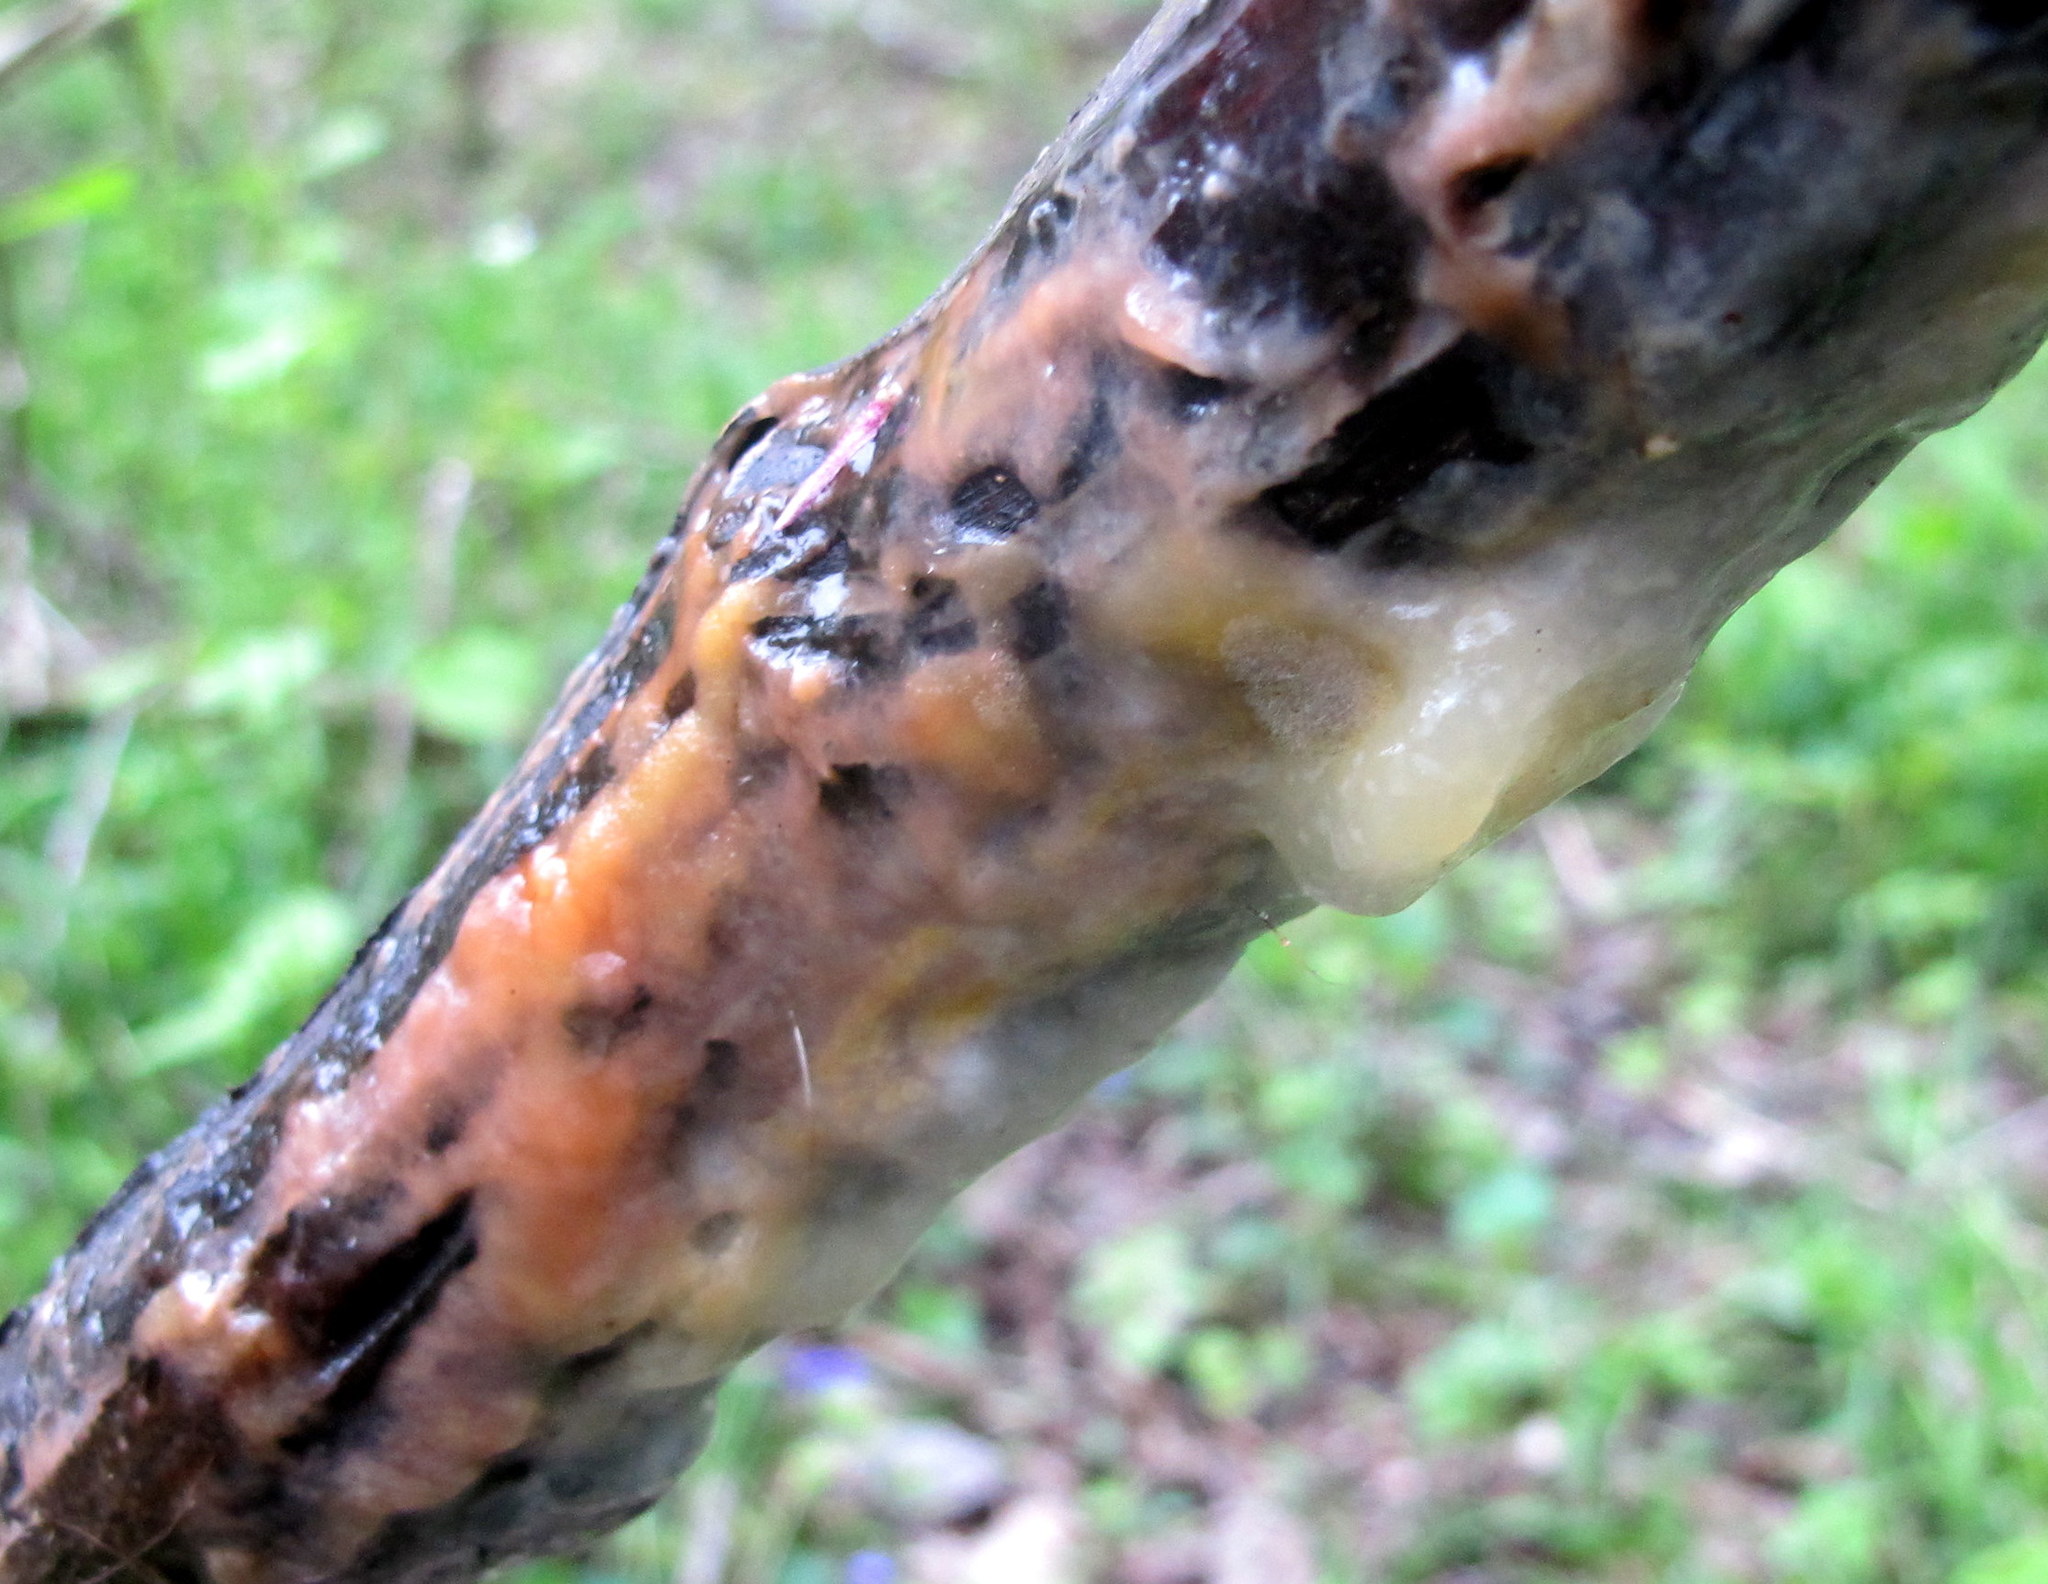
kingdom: Fungi
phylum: Ascomycota
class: Sordariomycetes
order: Hypocreales
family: Nectriaceae
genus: Fusicolla
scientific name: Fusicolla merismoides
